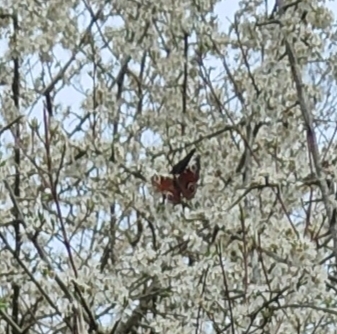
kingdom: Animalia
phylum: Arthropoda
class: Insecta
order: Lepidoptera
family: Nymphalidae
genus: Aglais
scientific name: Aglais io
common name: Peacock
